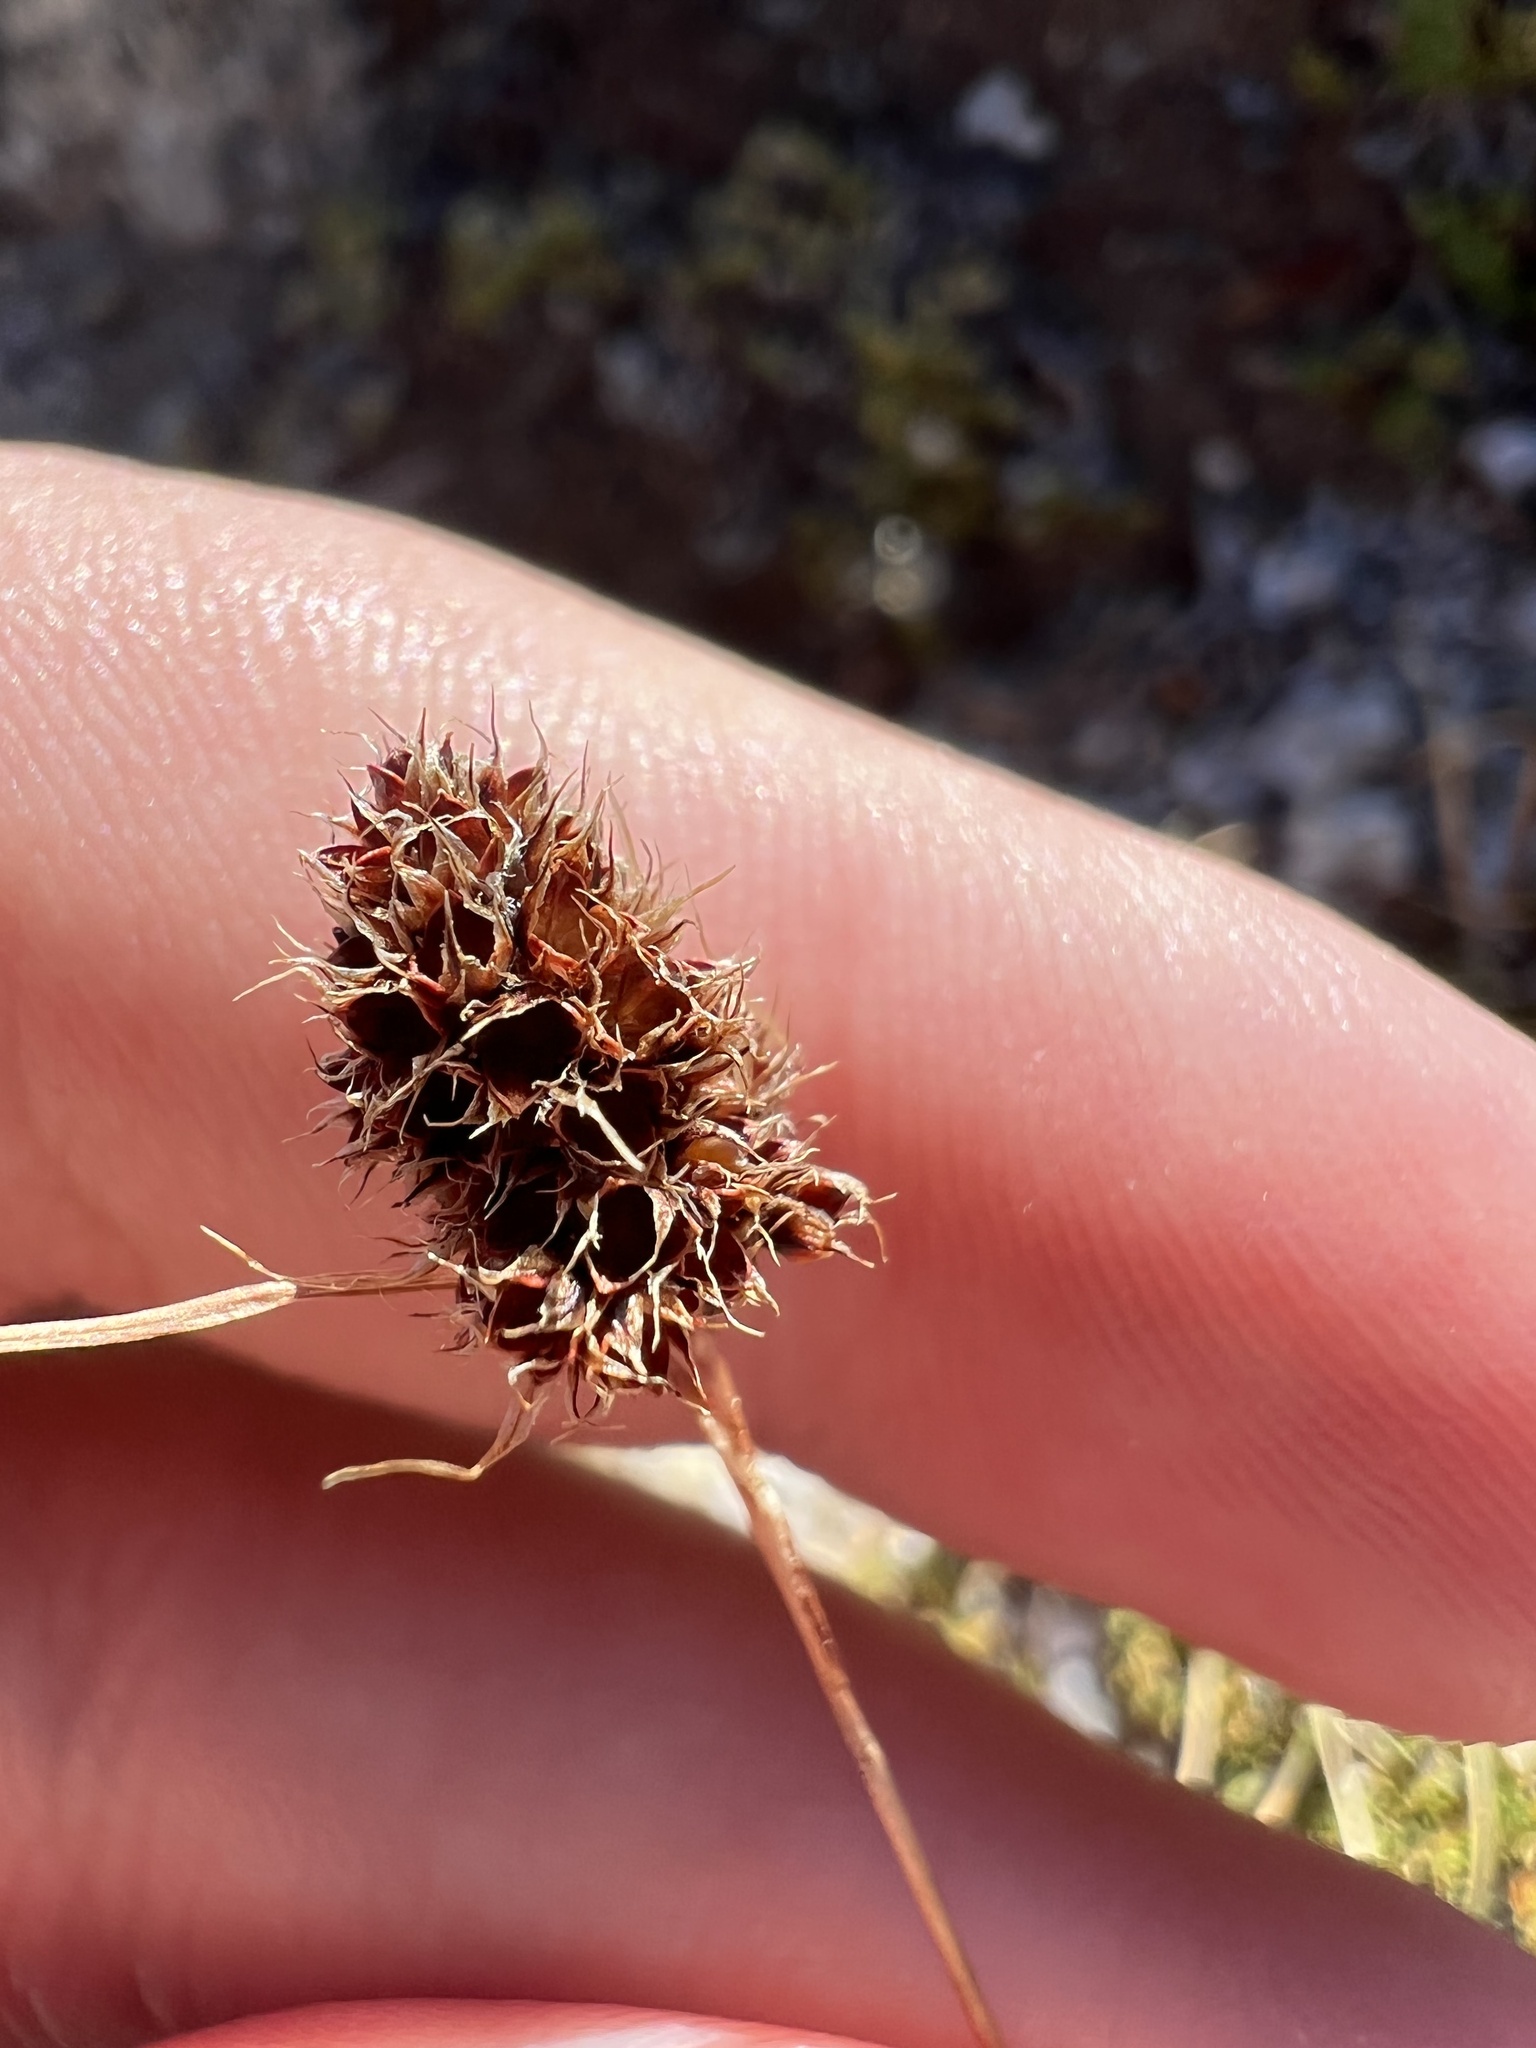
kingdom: Plantae
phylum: Tracheophyta
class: Liliopsida
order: Poales
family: Juncaceae
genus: Luzula
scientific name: Luzula spicata
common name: Spiked wood-rush
